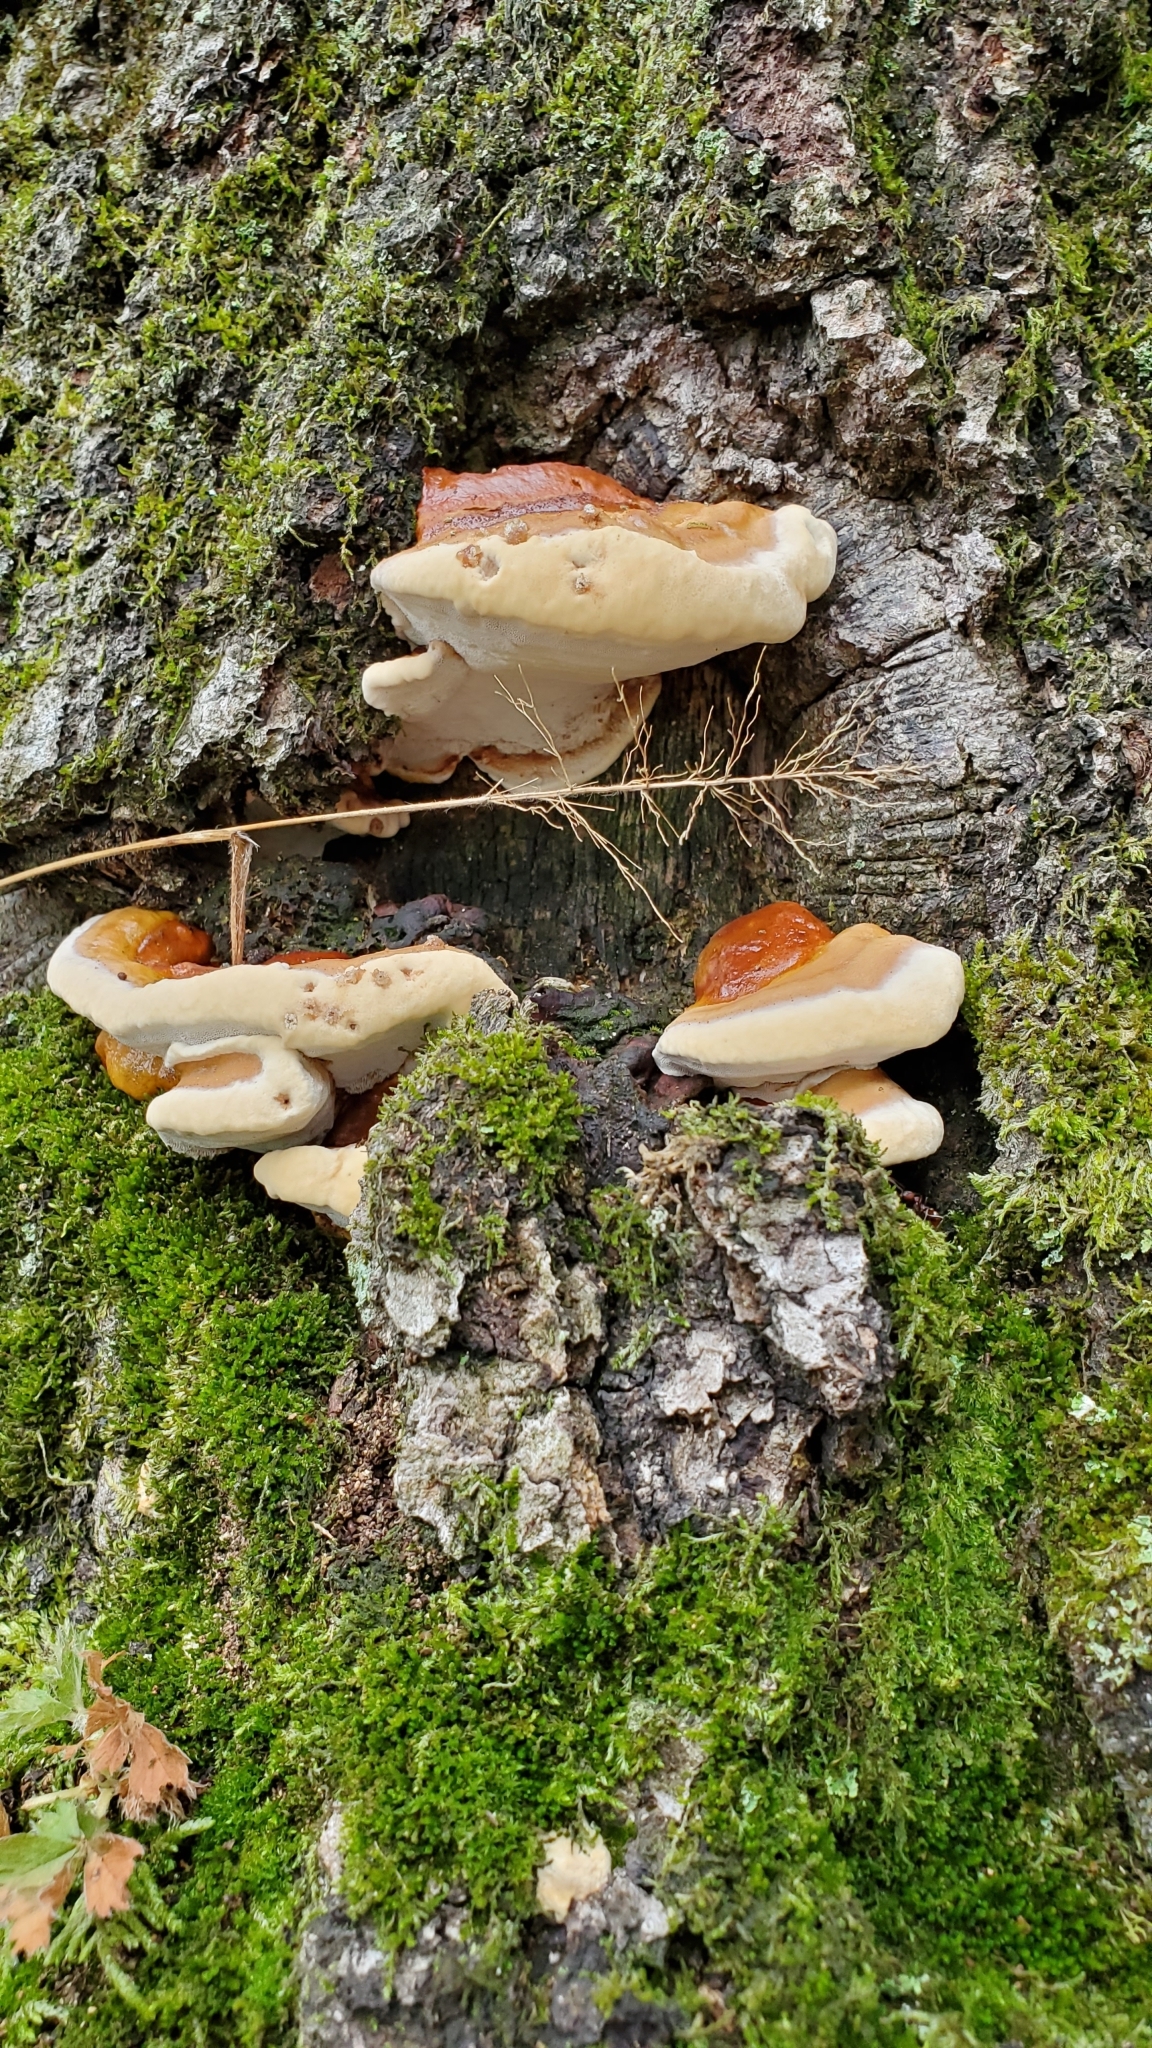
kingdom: Fungi
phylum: Basidiomycota
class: Agaricomycetes
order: Polyporales
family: Polyporaceae
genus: Ganoderma
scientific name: Ganoderma tsugae
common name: Hemlock varnish shelf
